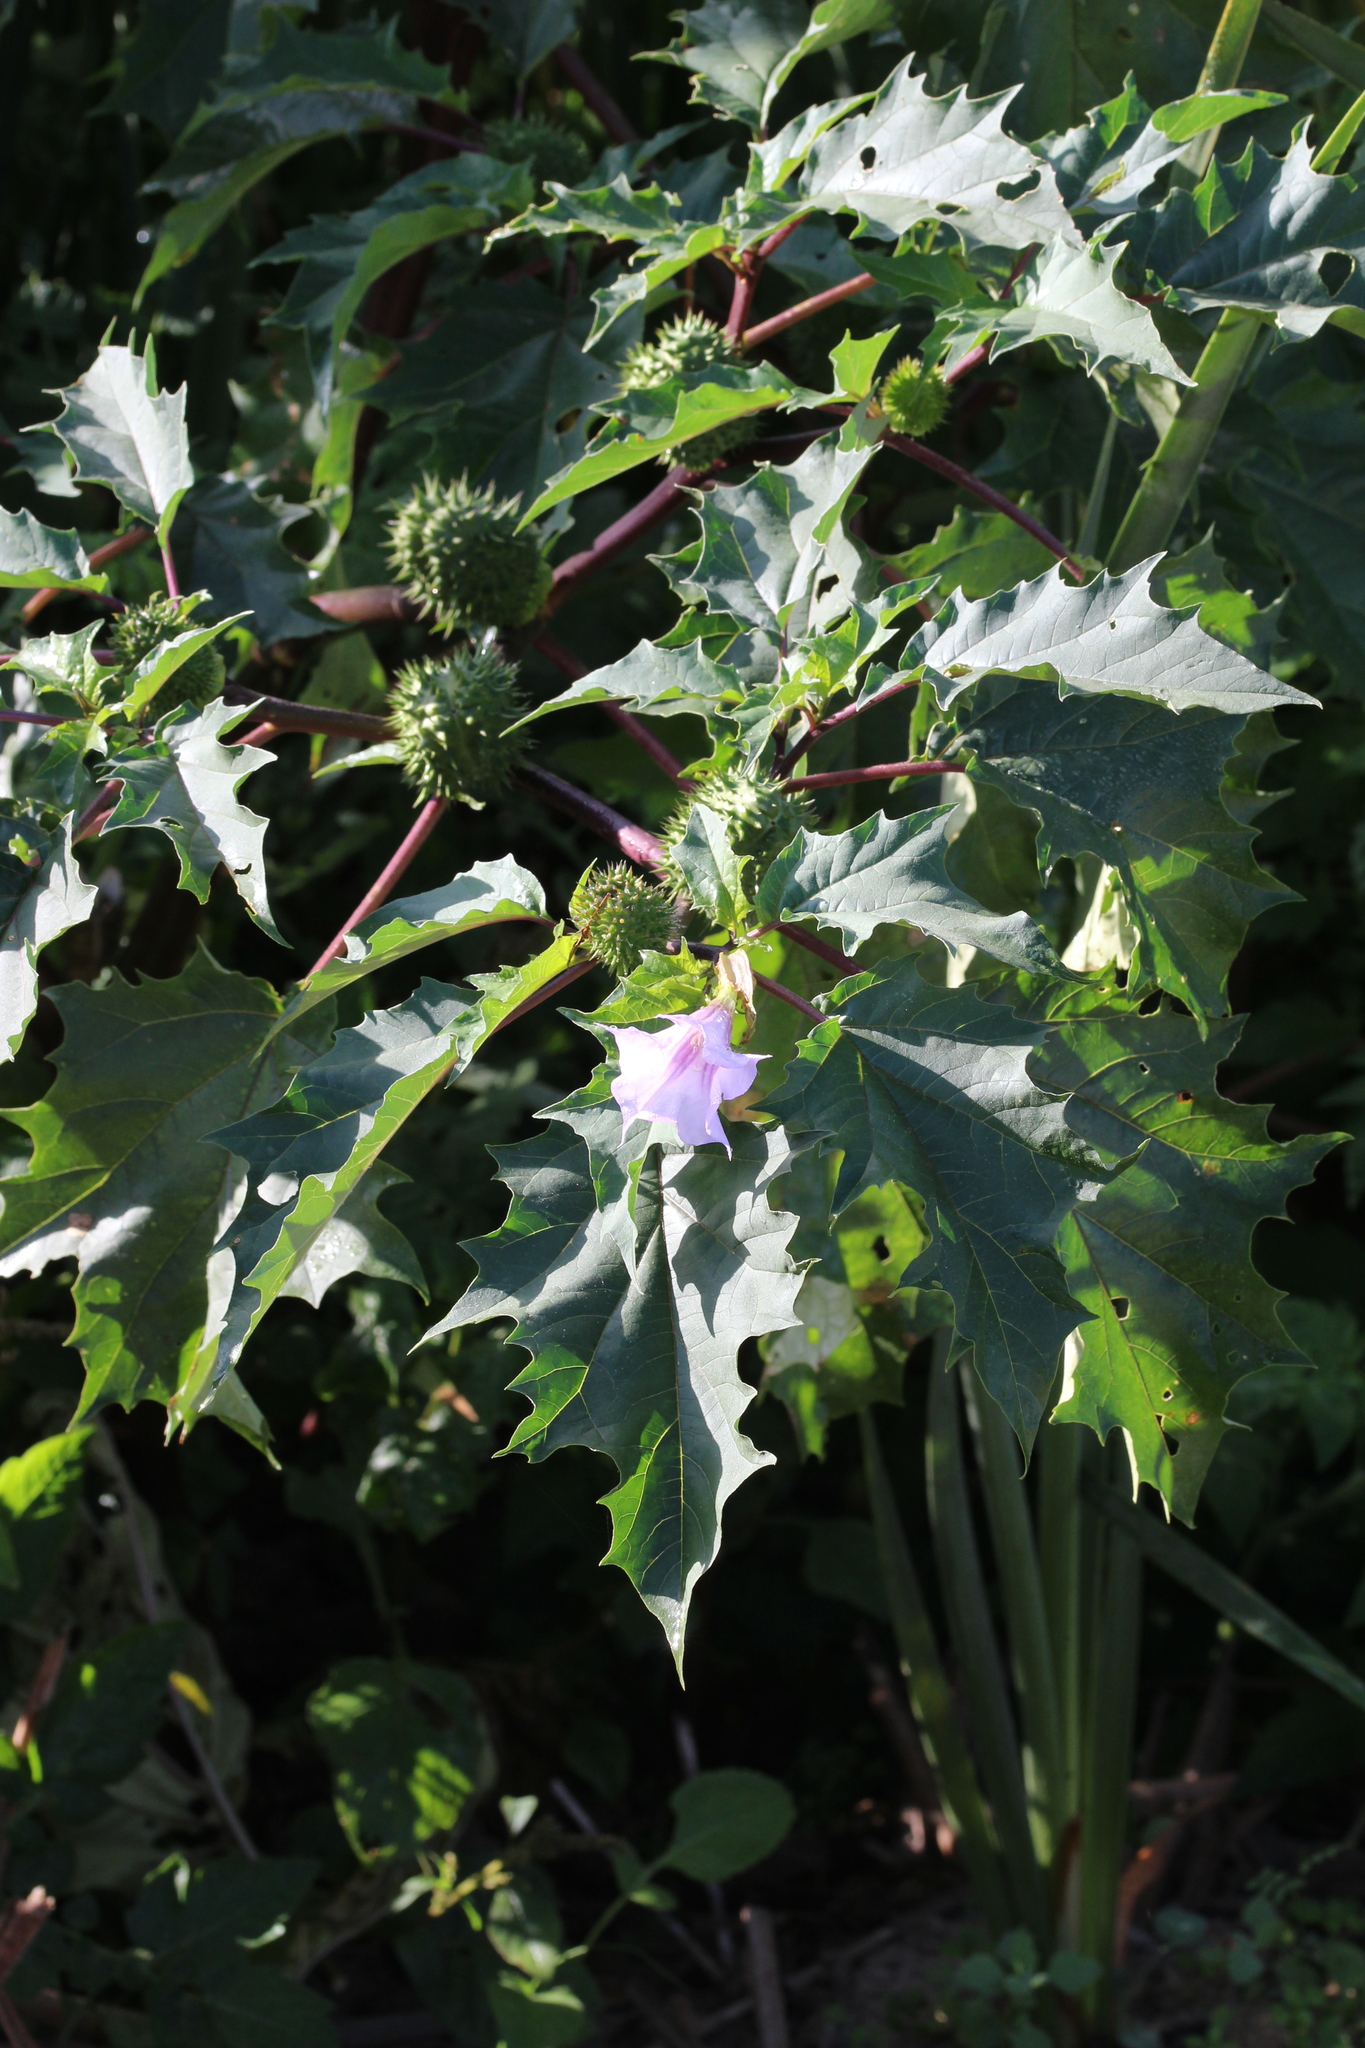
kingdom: Plantae
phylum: Tracheophyta
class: Magnoliopsida
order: Solanales
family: Solanaceae
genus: Datura
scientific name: Datura stramonium
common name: Thorn-apple
